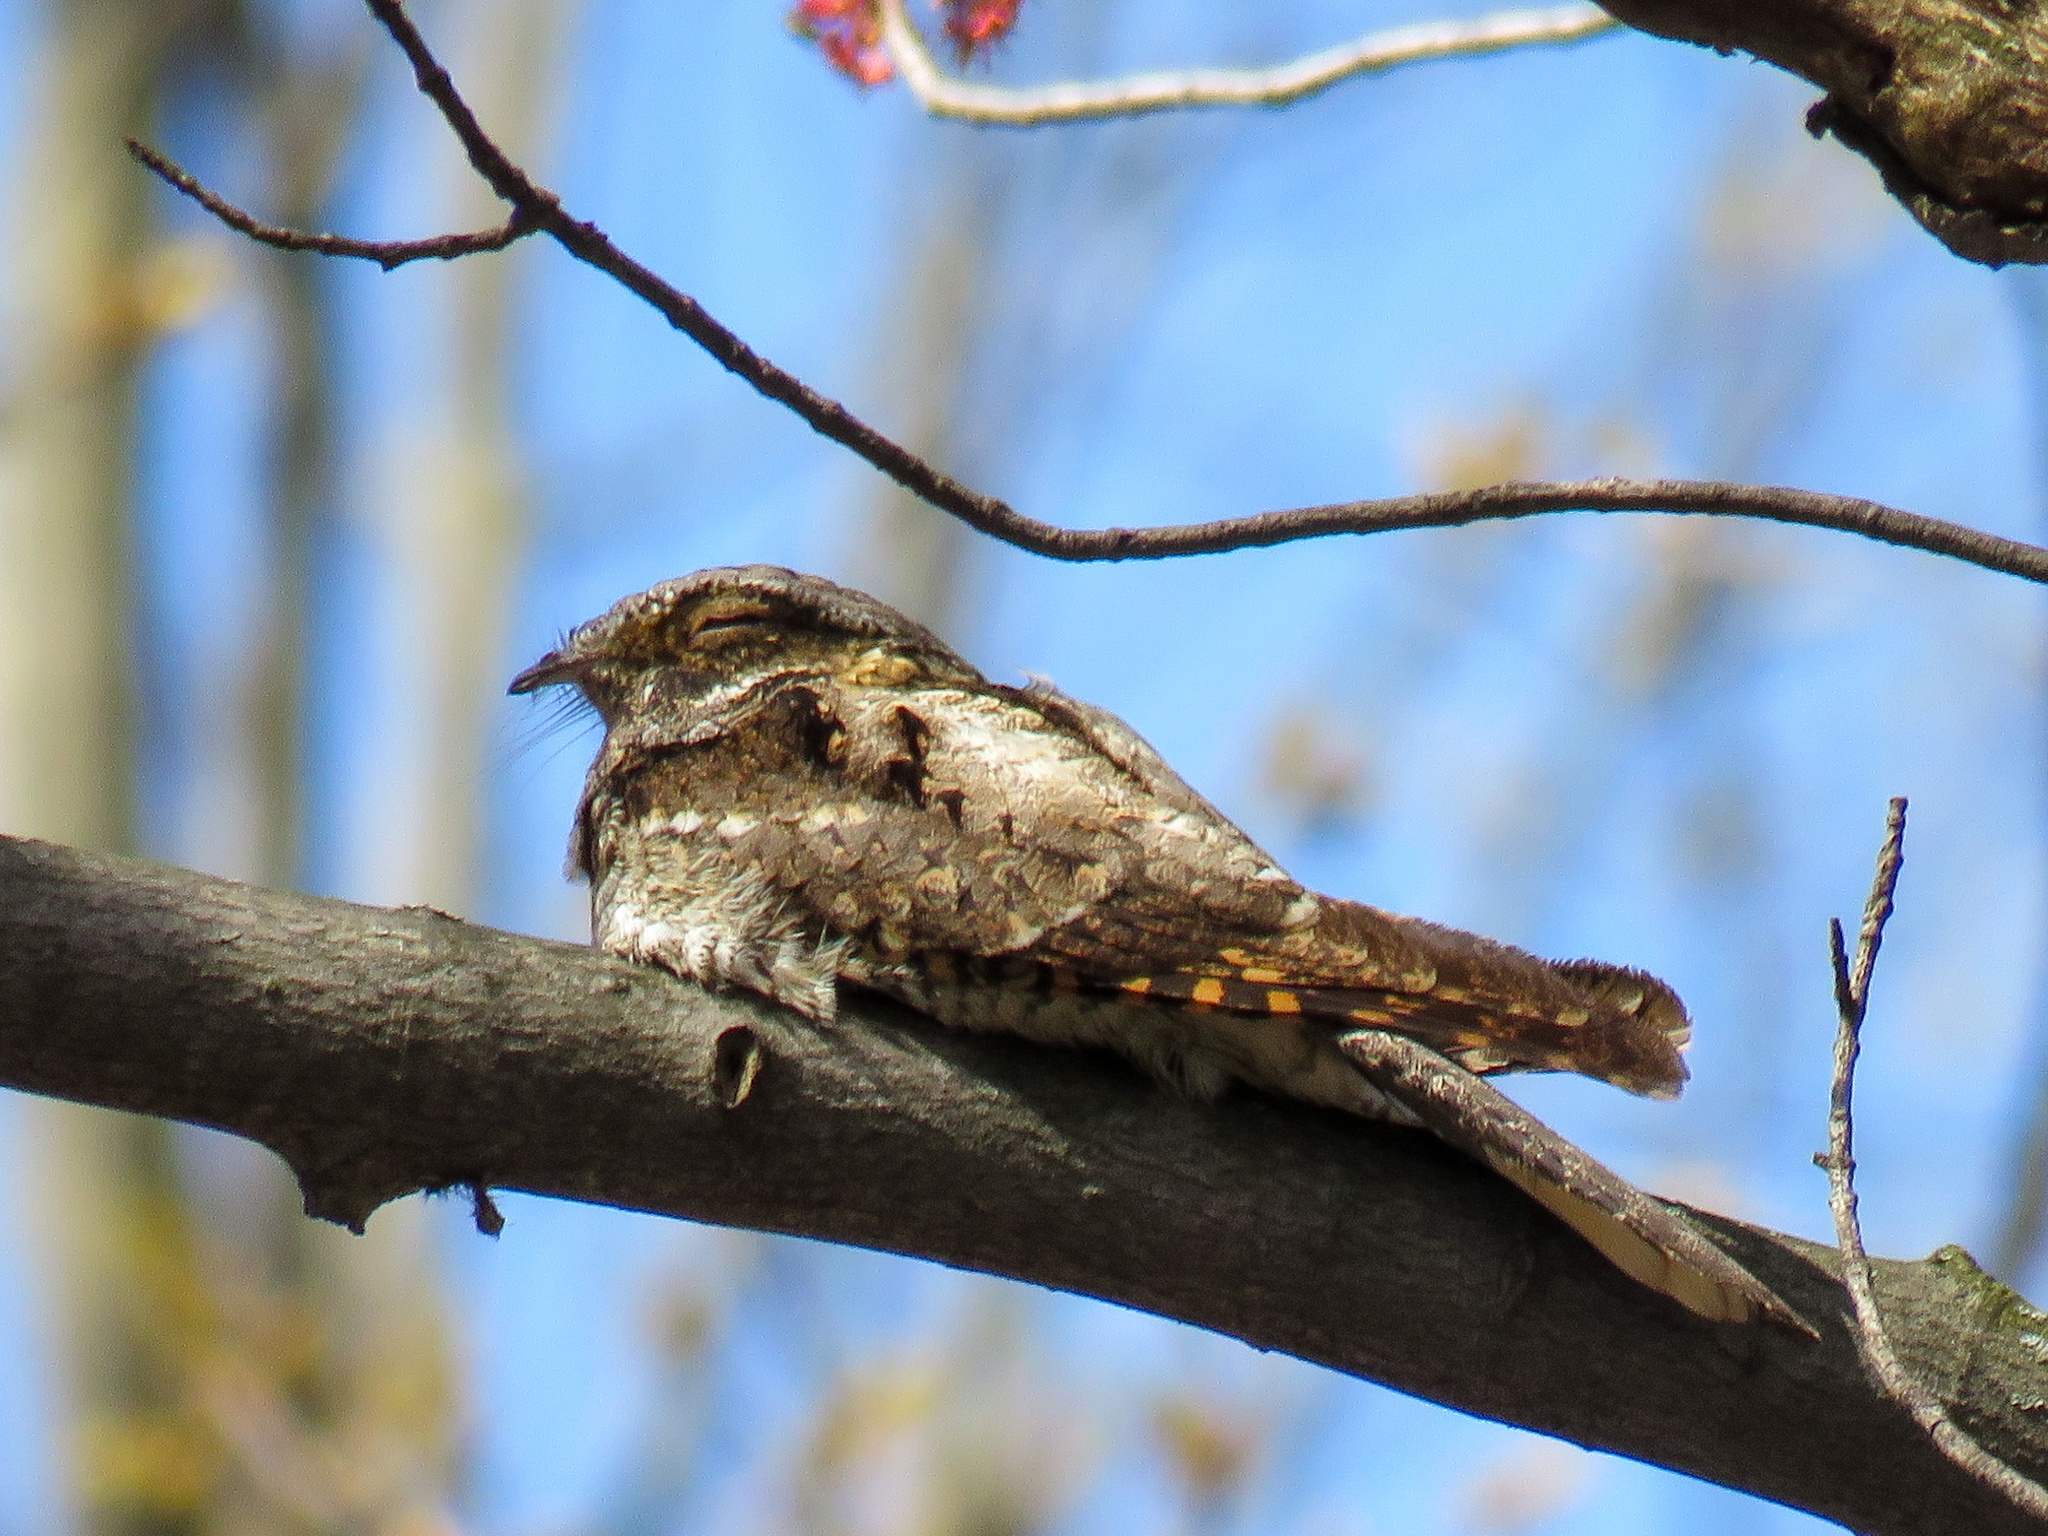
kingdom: Animalia
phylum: Chordata
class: Aves
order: Caprimulgiformes
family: Caprimulgidae
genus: Antrostomus
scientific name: Antrostomus vociferus
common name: Eastern whip-poor-will
